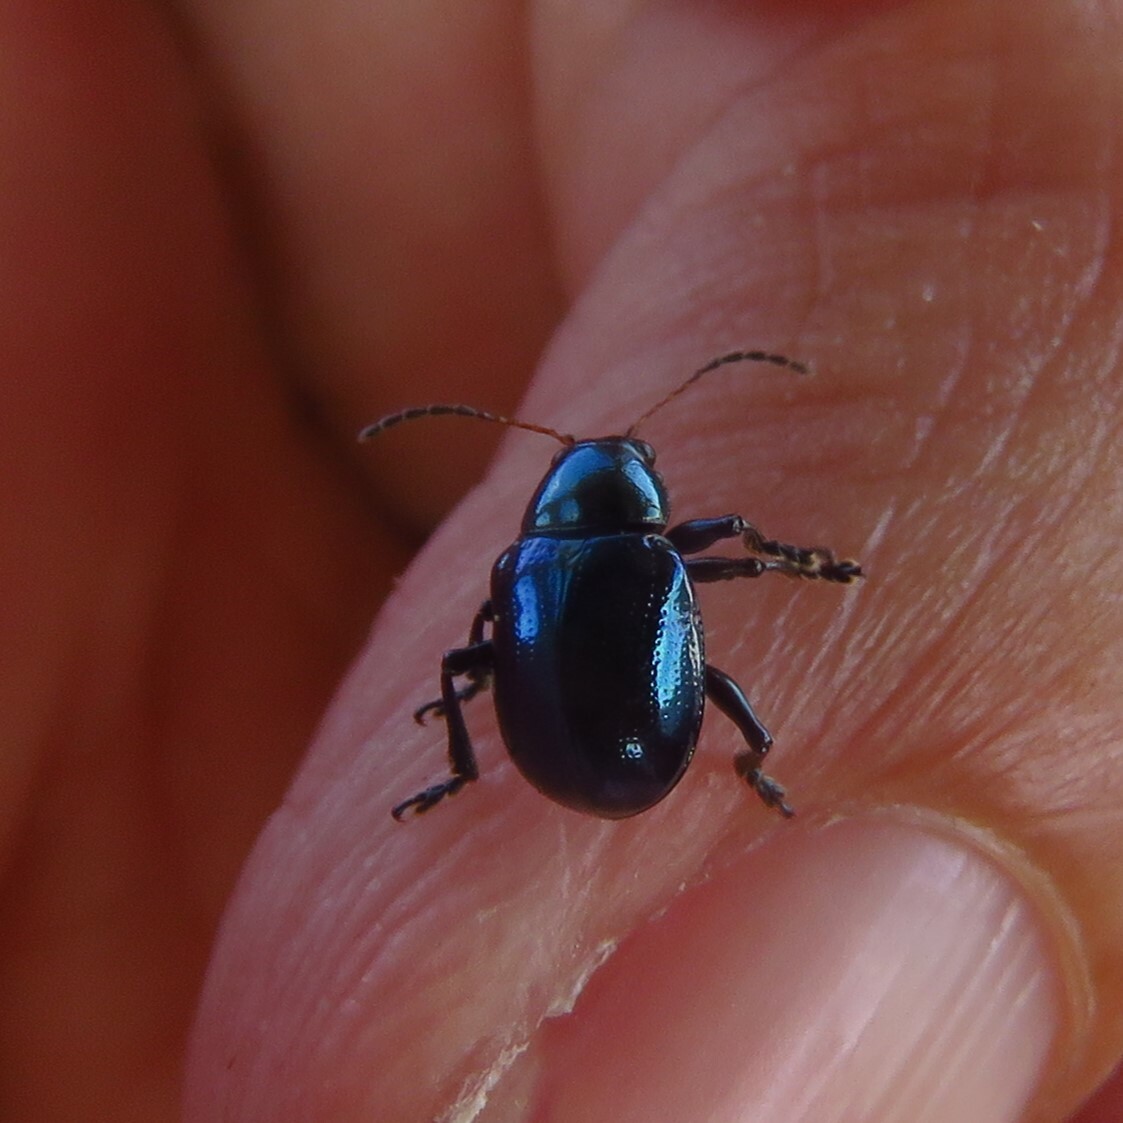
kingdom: Animalia
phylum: Arthropoda
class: Insecta
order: Coleoptera
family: Chrysomelidae
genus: Typophorus
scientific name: Typophorus nigritus
